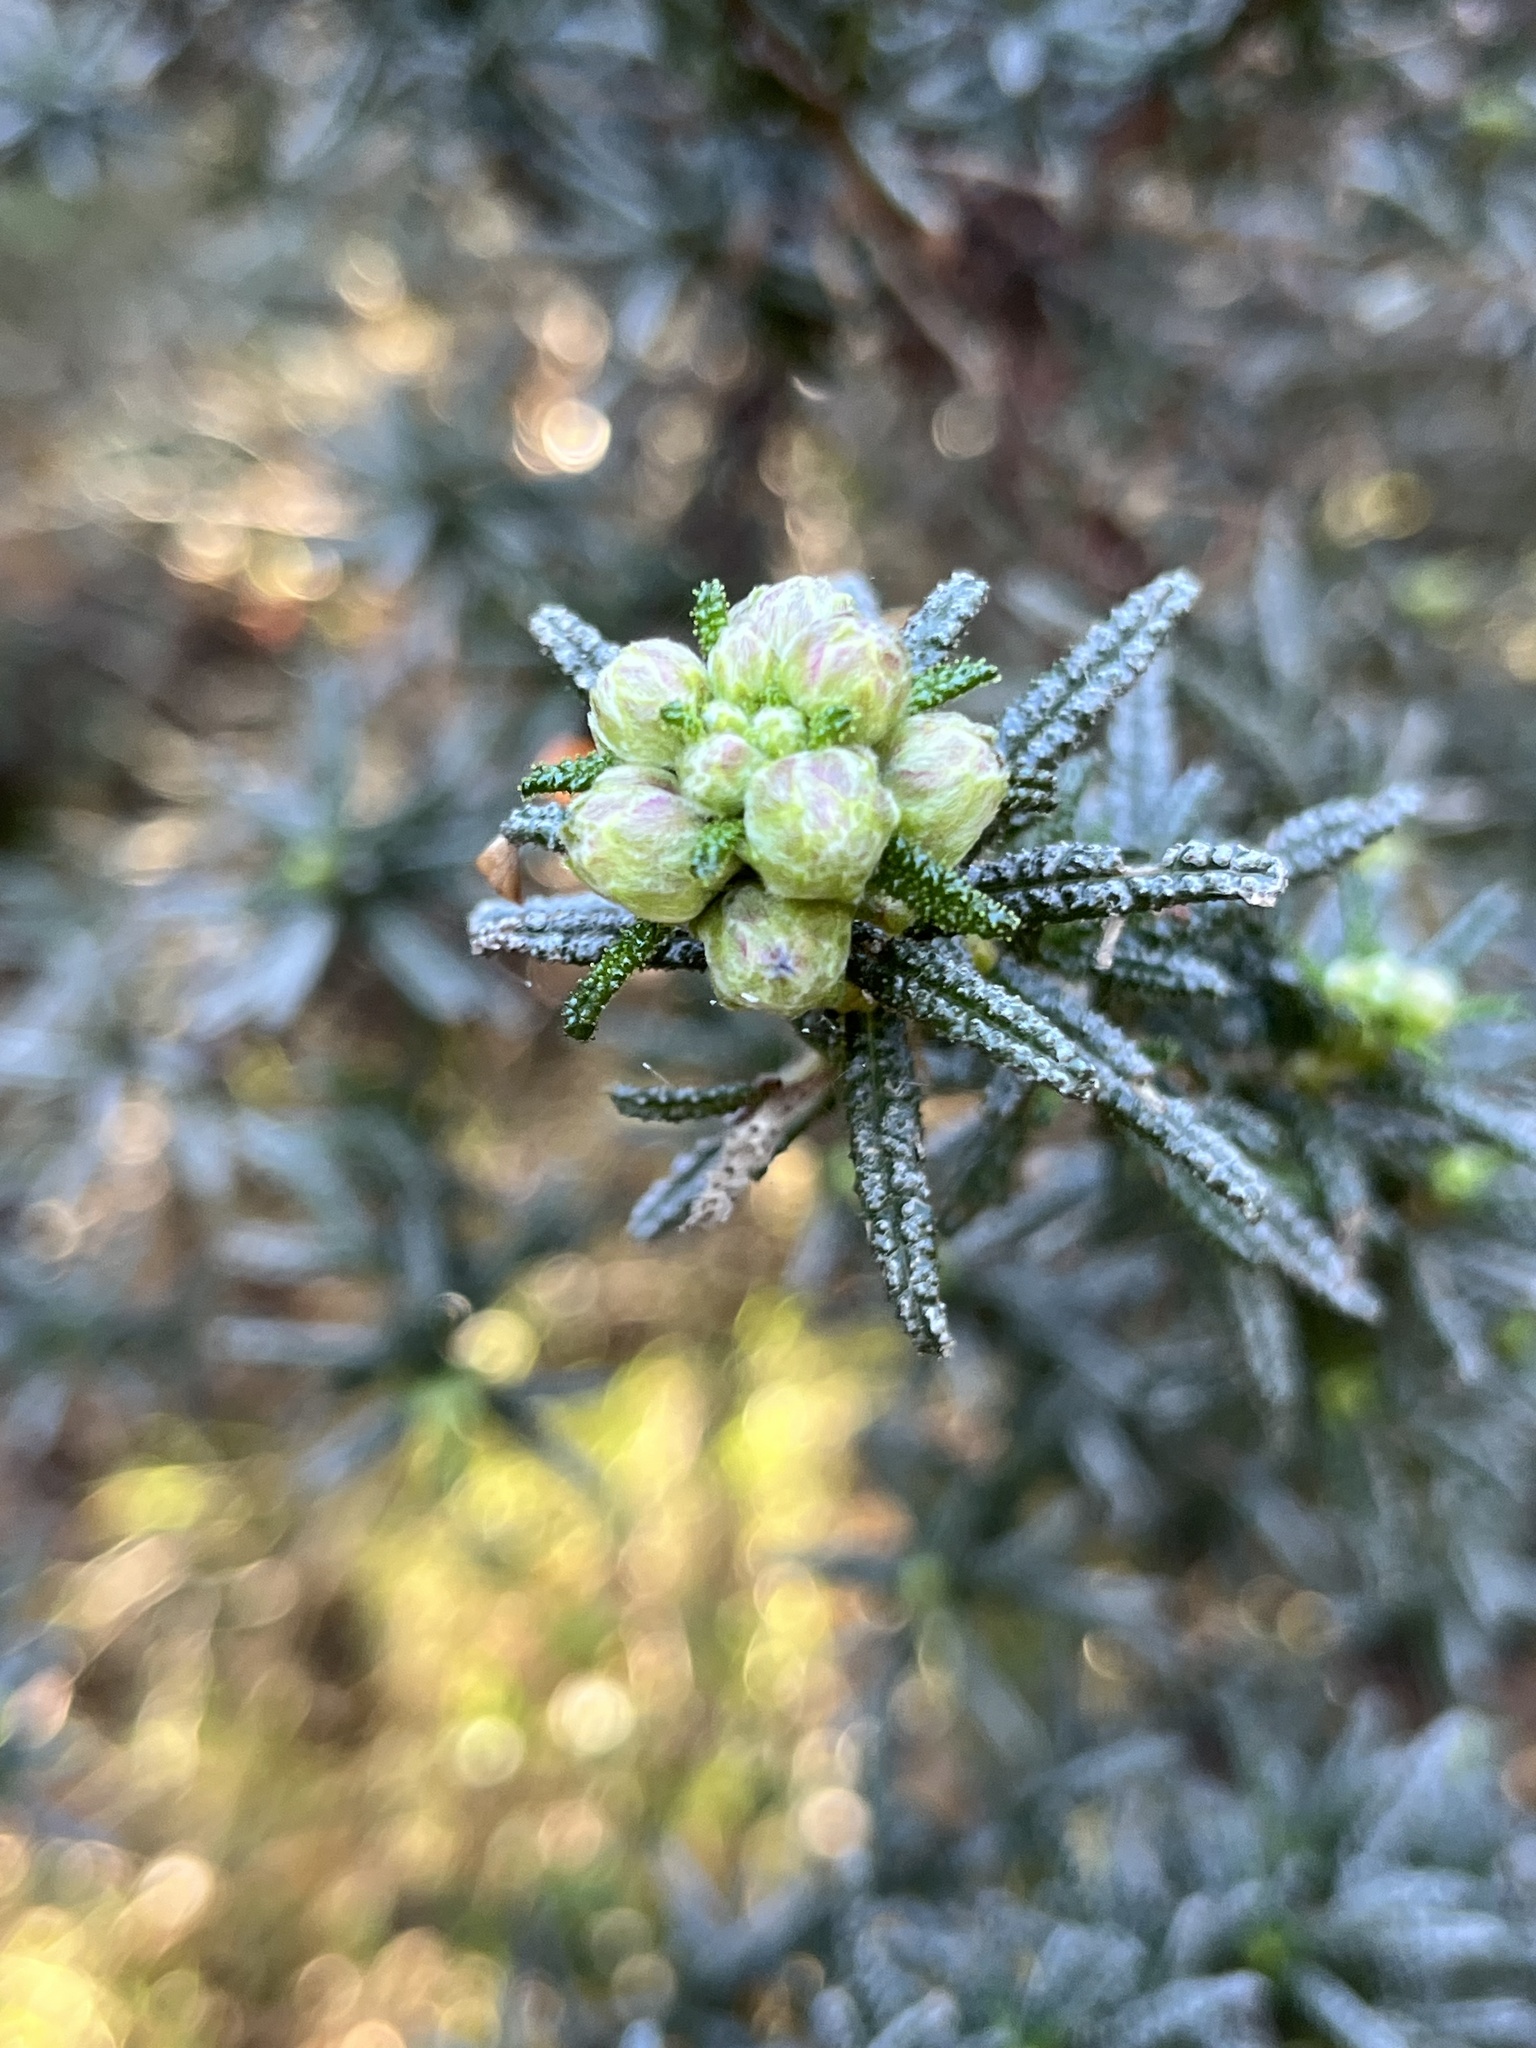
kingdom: Plantae
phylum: Tracheophyta
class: Magnoliopsida
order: Rosales
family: Rhamnaceae
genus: Ceanothus
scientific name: Ceanothus papillosus
